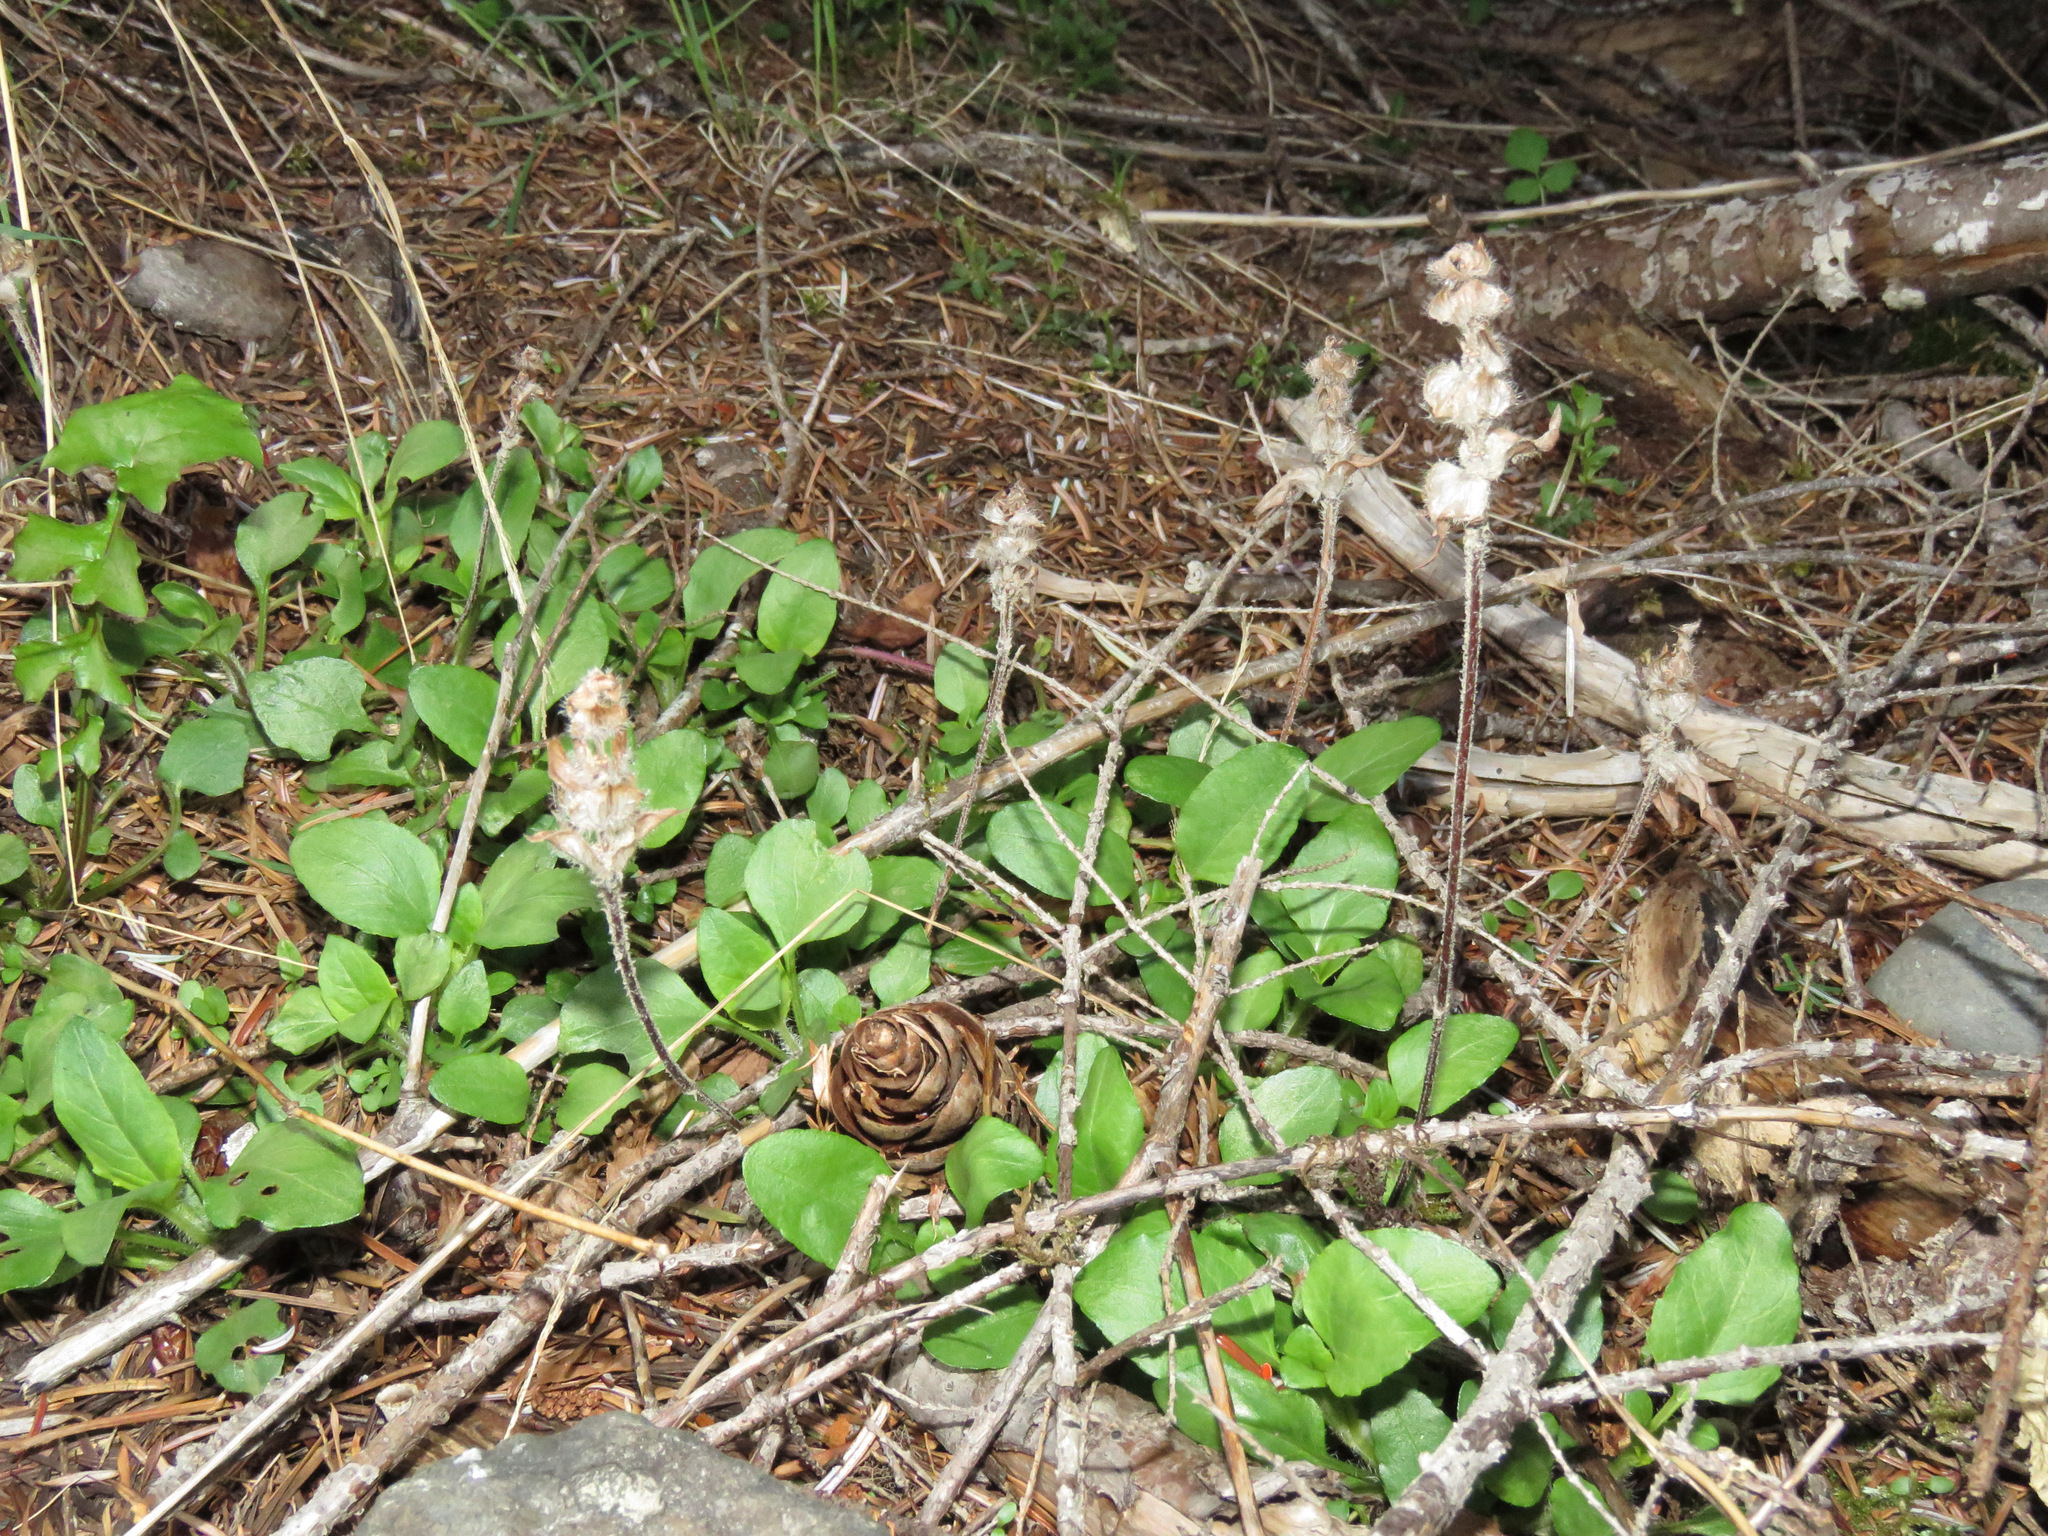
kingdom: Plantae
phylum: Tracheophyta
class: Magnoliopsida
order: Lamiales
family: Lamiaceae
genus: Prunella
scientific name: Prunella vulgaris
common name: Heal-all
